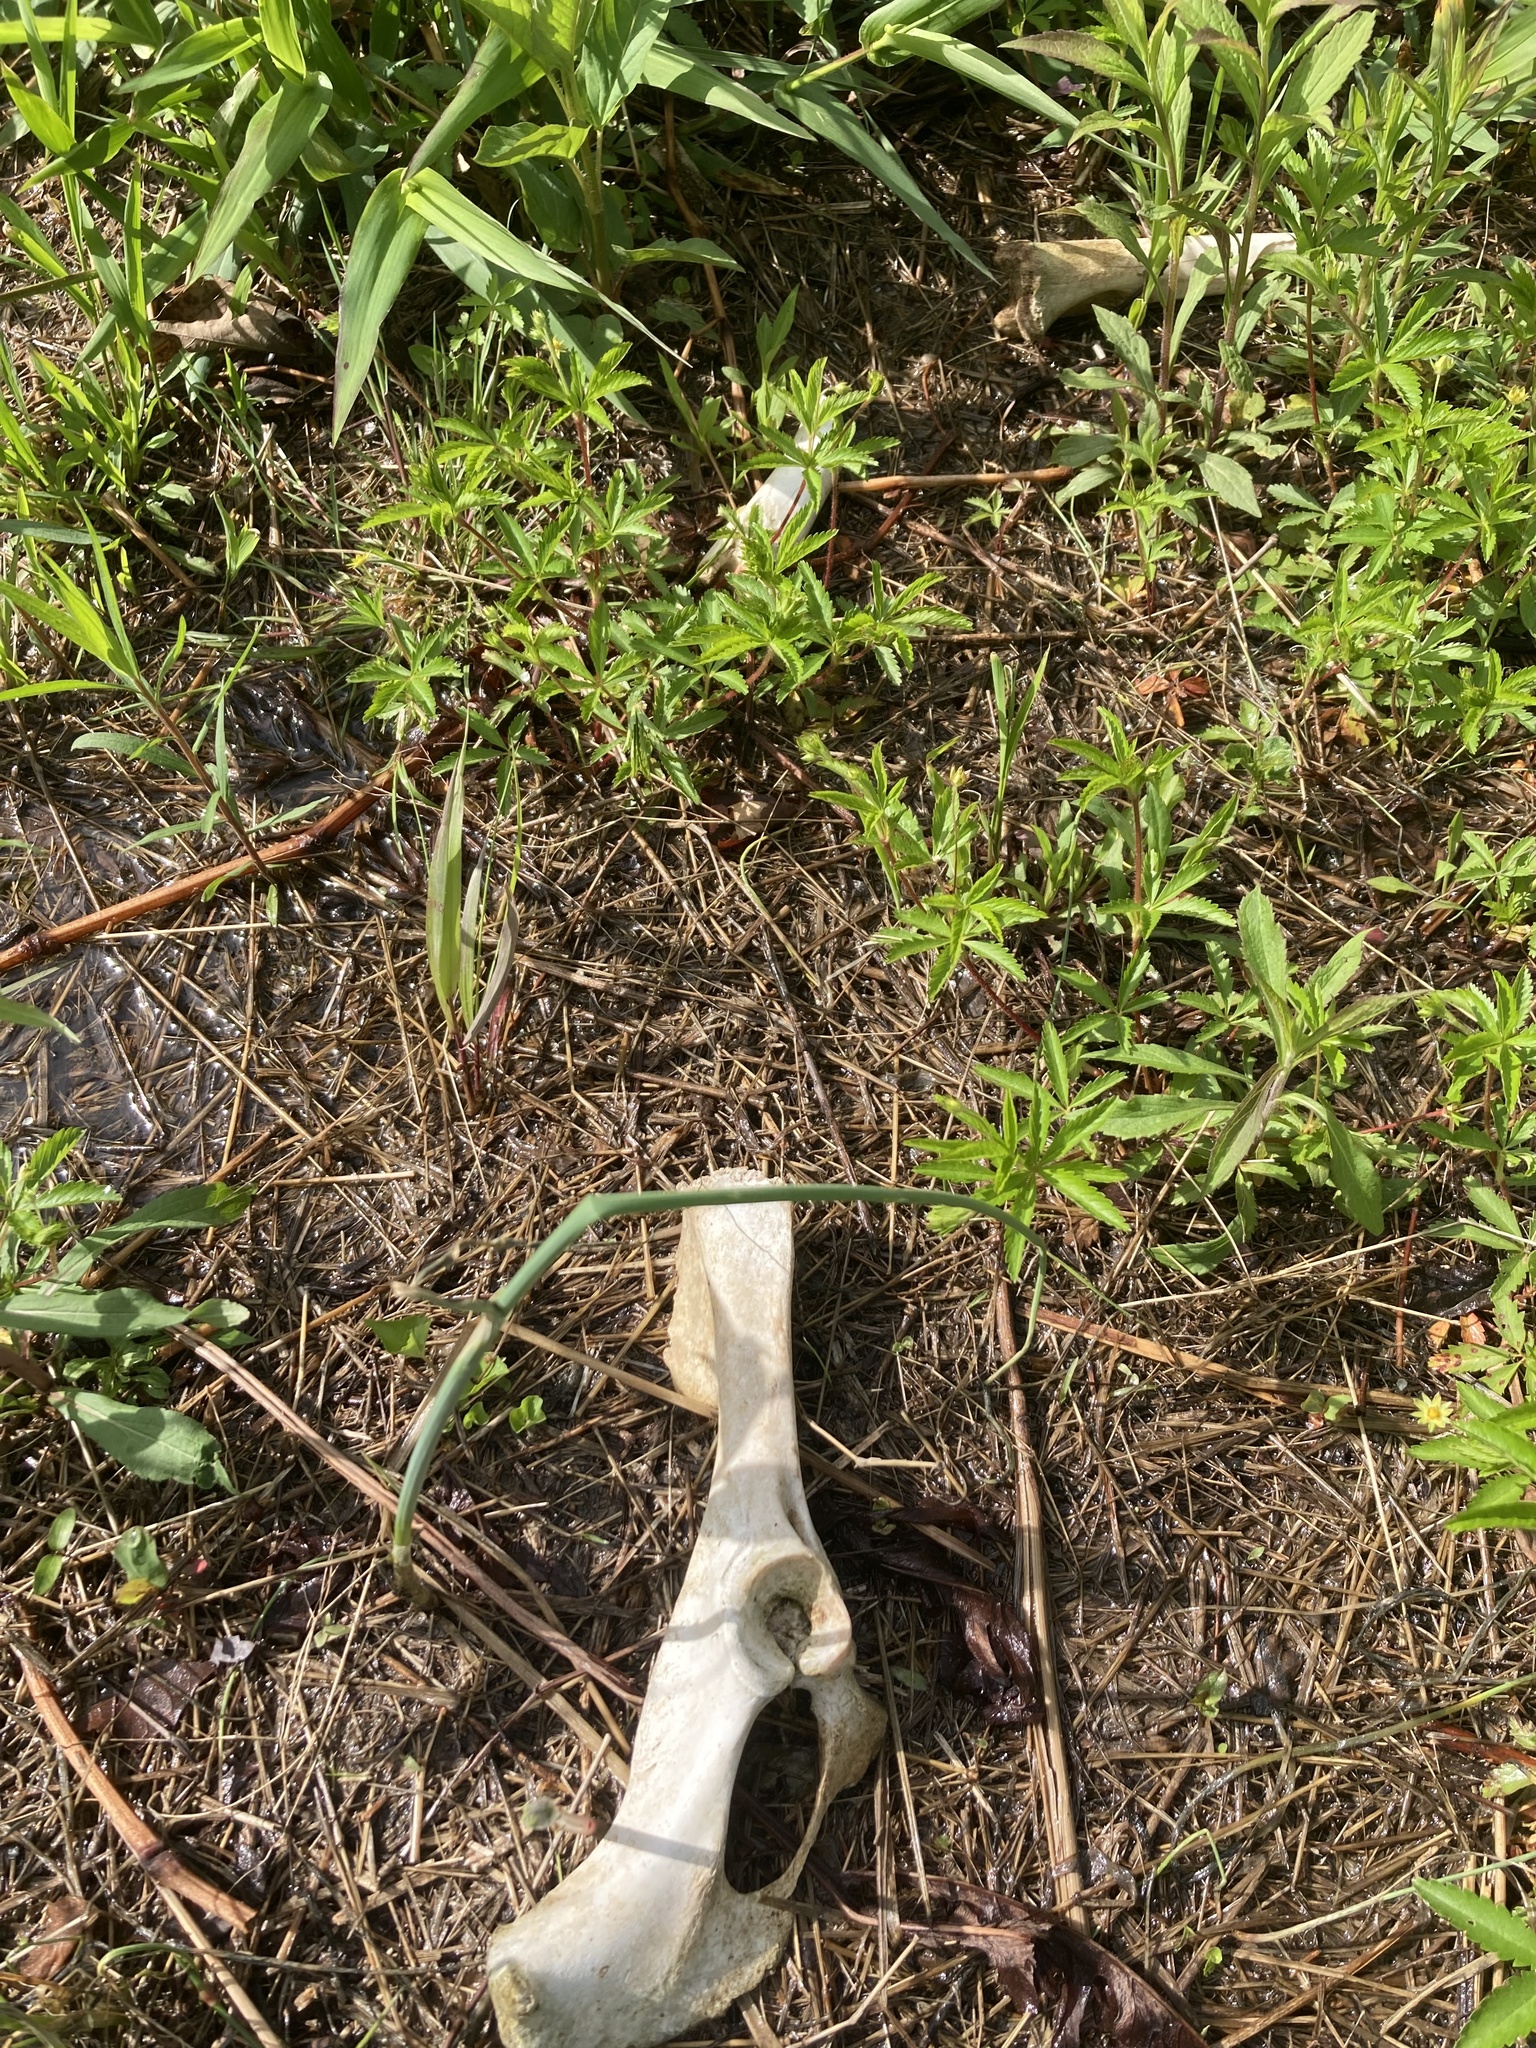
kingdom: Animalia
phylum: Chordata
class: Mammalia
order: Artiodactyla
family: Cervidae
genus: Odocoileus
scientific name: Odocoileus virginianus
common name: White-tailed deer
